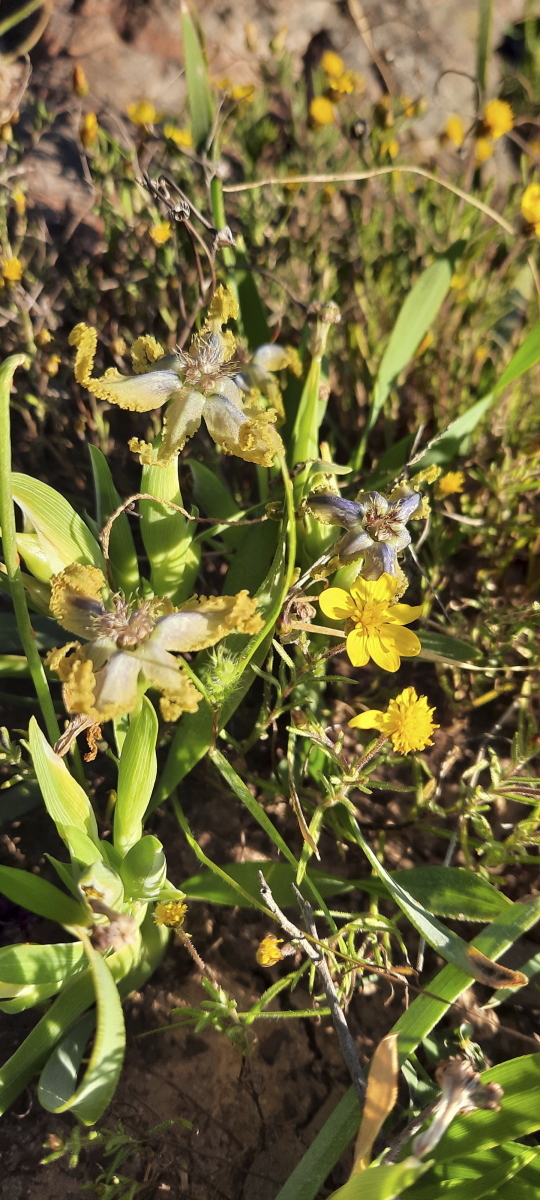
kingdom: Plantae
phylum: Tracheophyta
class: Liliopsida
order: Asparagales
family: Iridaceae
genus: Ferraria
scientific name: Ferraria uncinata
